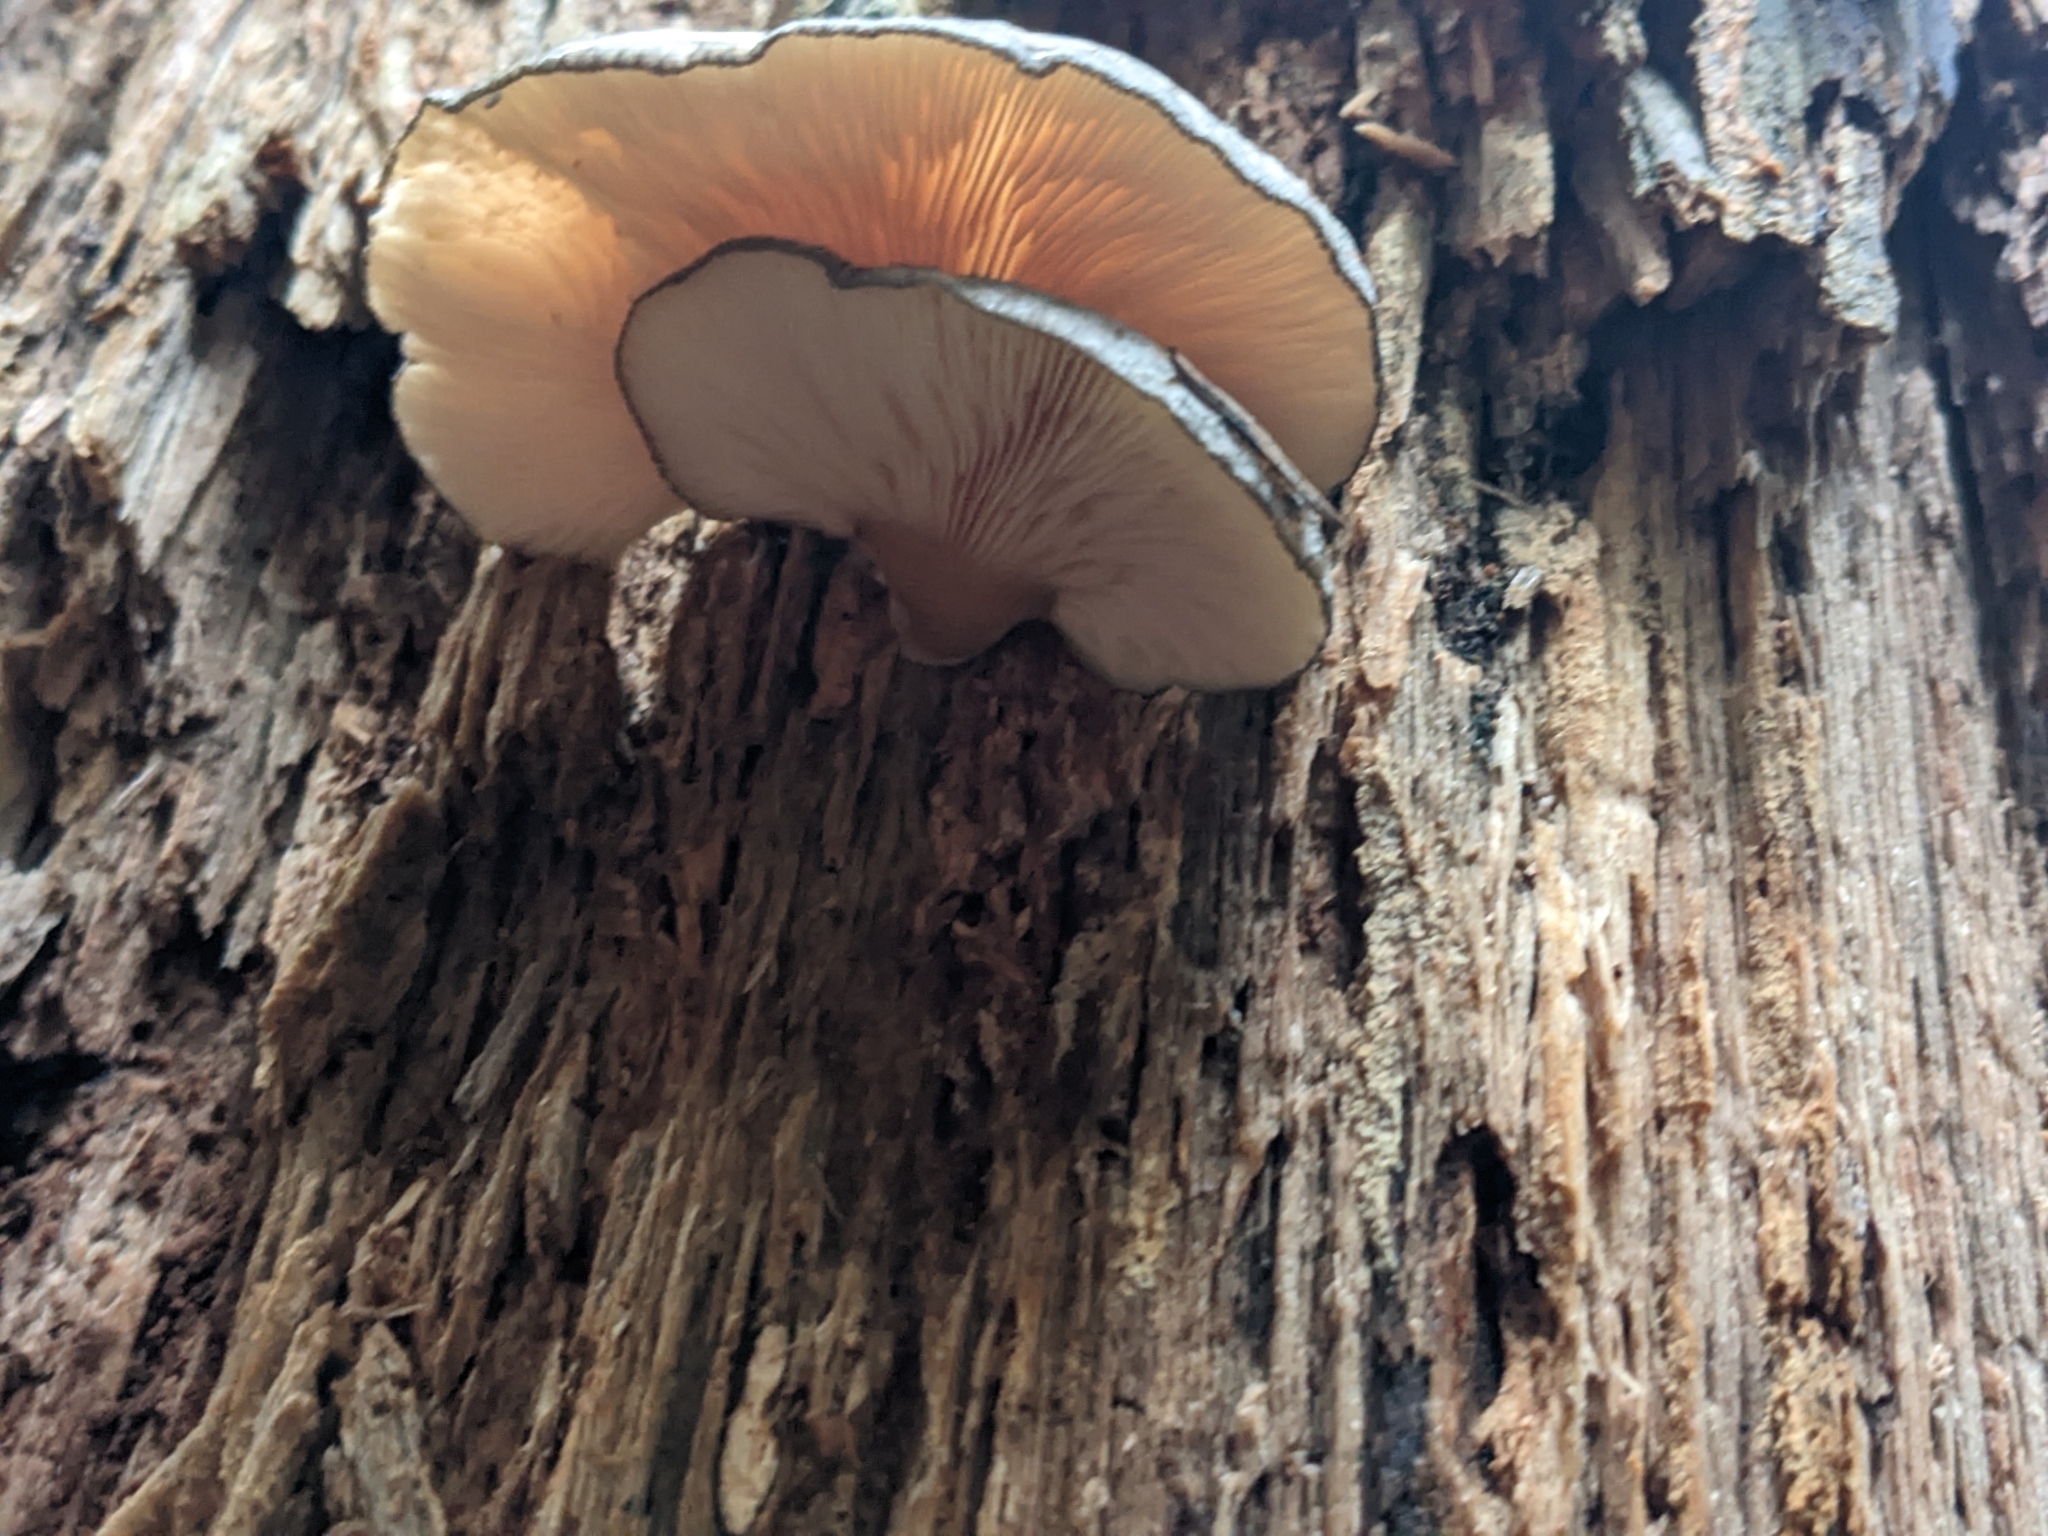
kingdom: Fungi
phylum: Basidiomycota
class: Agaricomycetes
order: Agaricales
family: Sarcomyxaceae
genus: Sarcomyxa
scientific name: Sarcomyxa serotina
